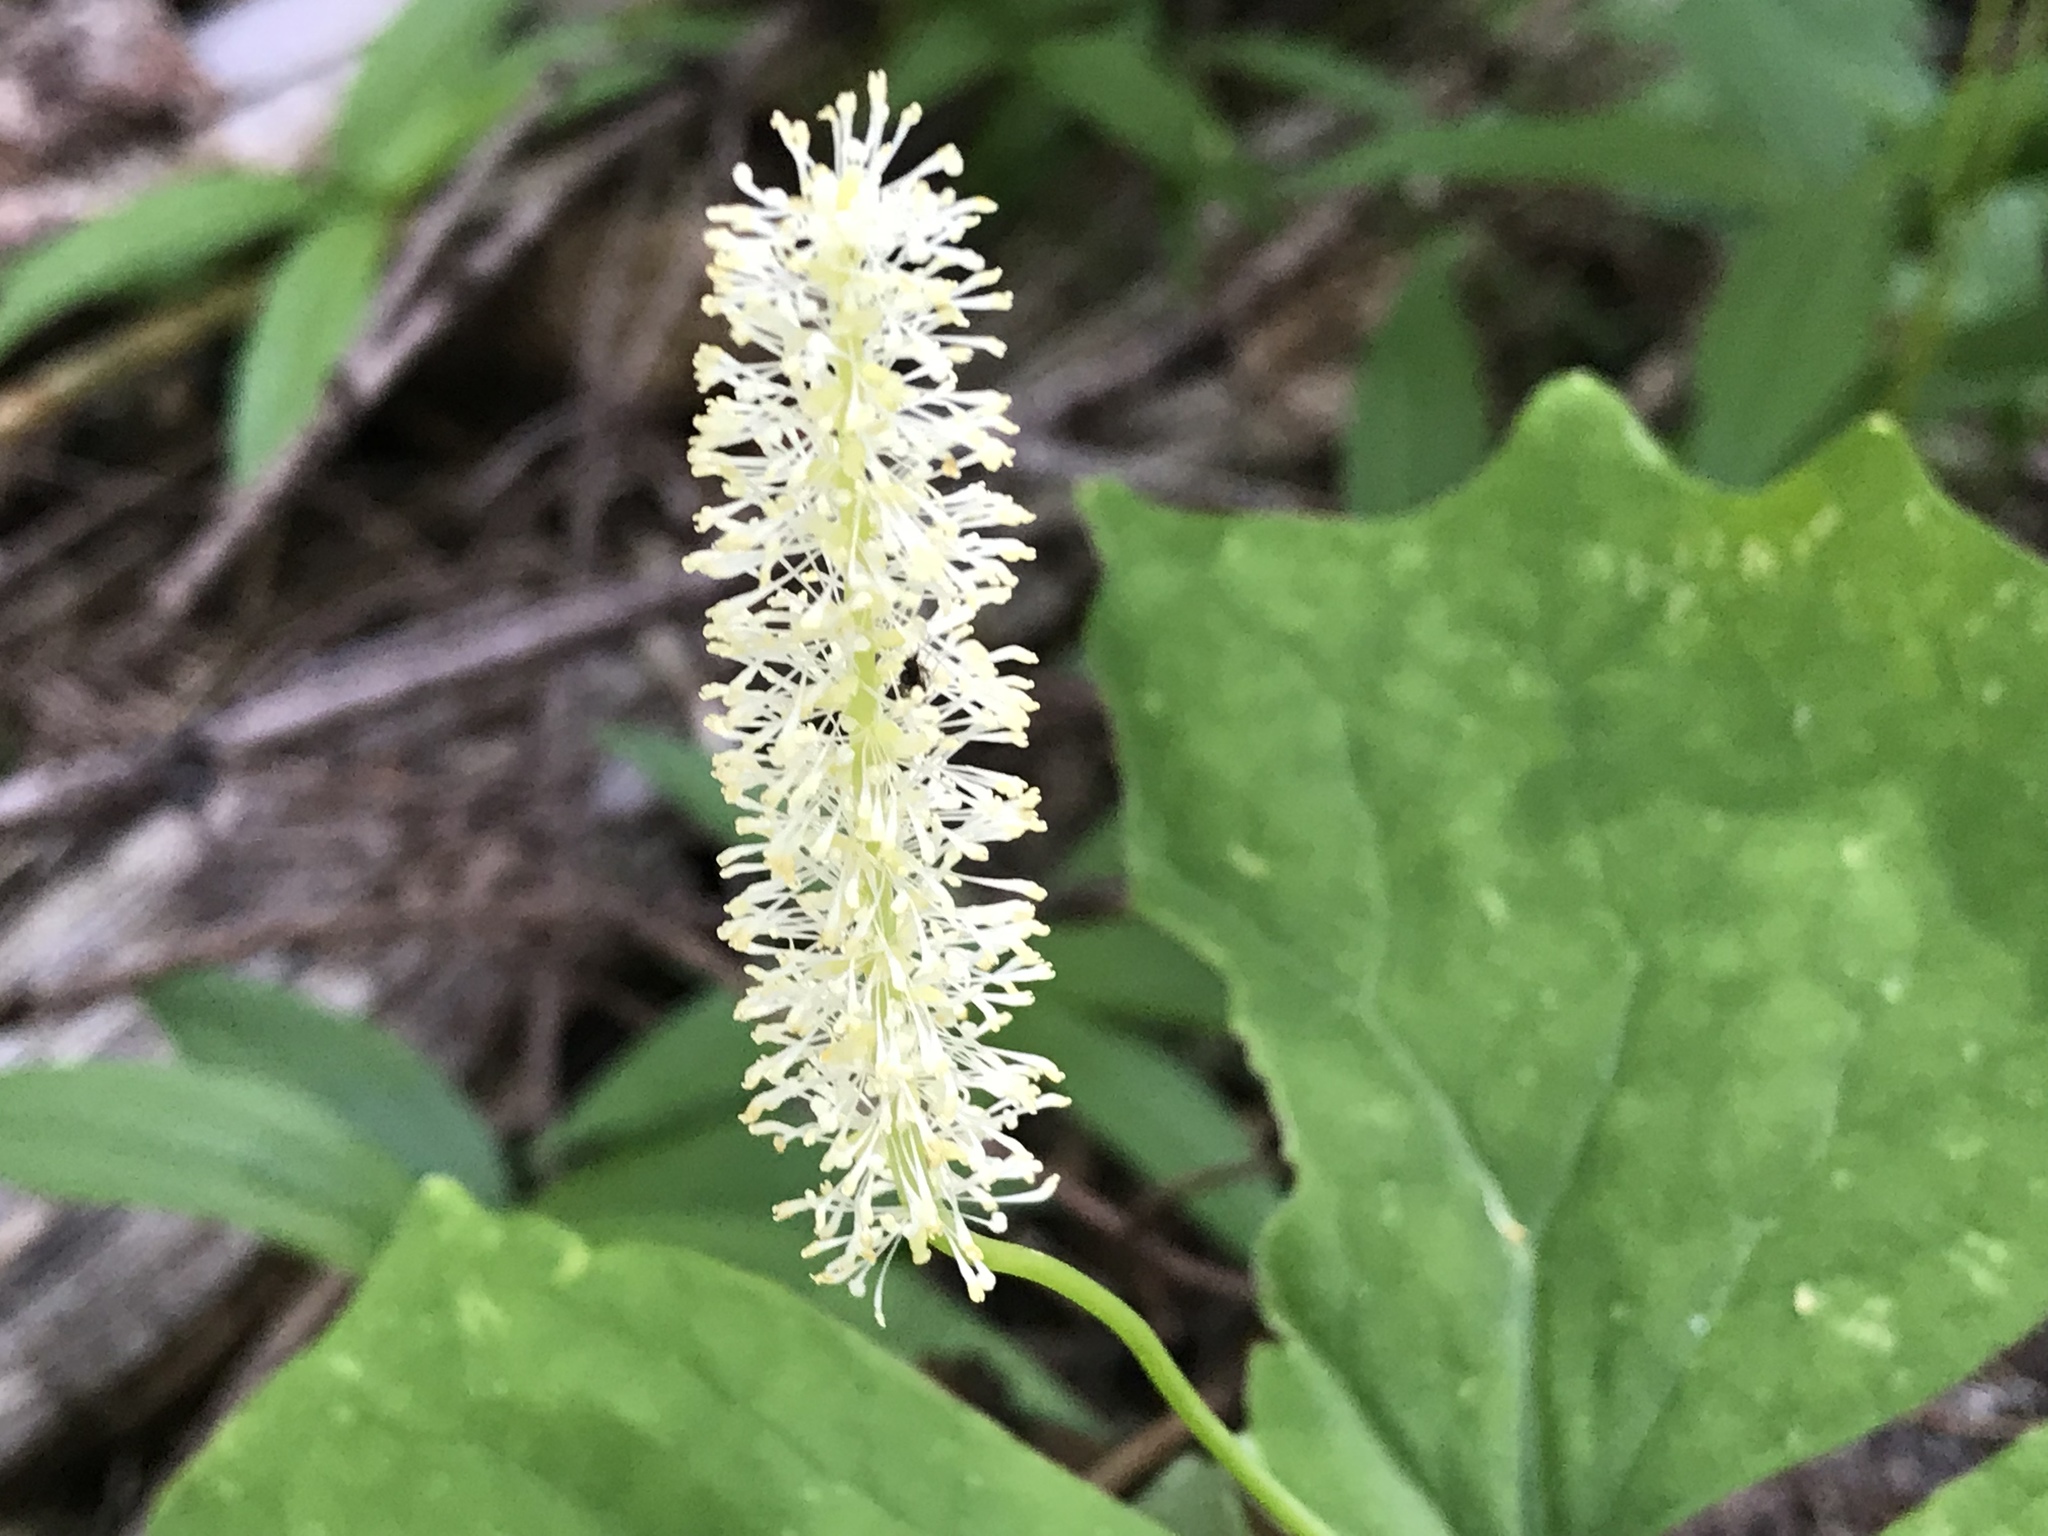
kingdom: Plantae
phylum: Tracheophyta
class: Magnoliopsida
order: Ranunculales
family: Berberidaceae
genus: Achlys
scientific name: Achlys triphylla
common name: Vanilla-leaf
